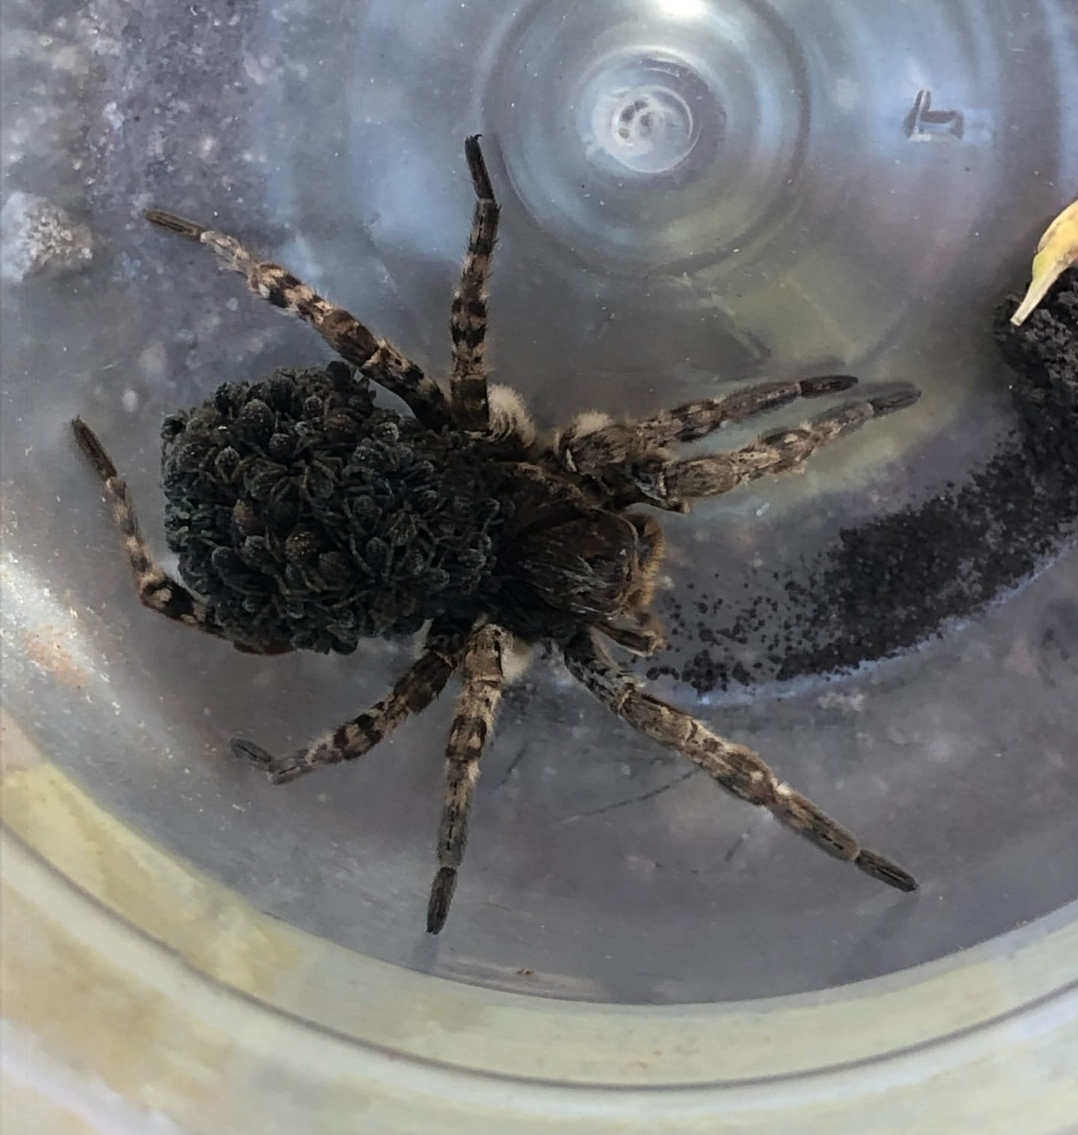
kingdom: Animalia
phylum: Arthropoda
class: Arachnida
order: Araneae
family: Lycosidae
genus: Lycosa
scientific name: Lycosa singoriensis
